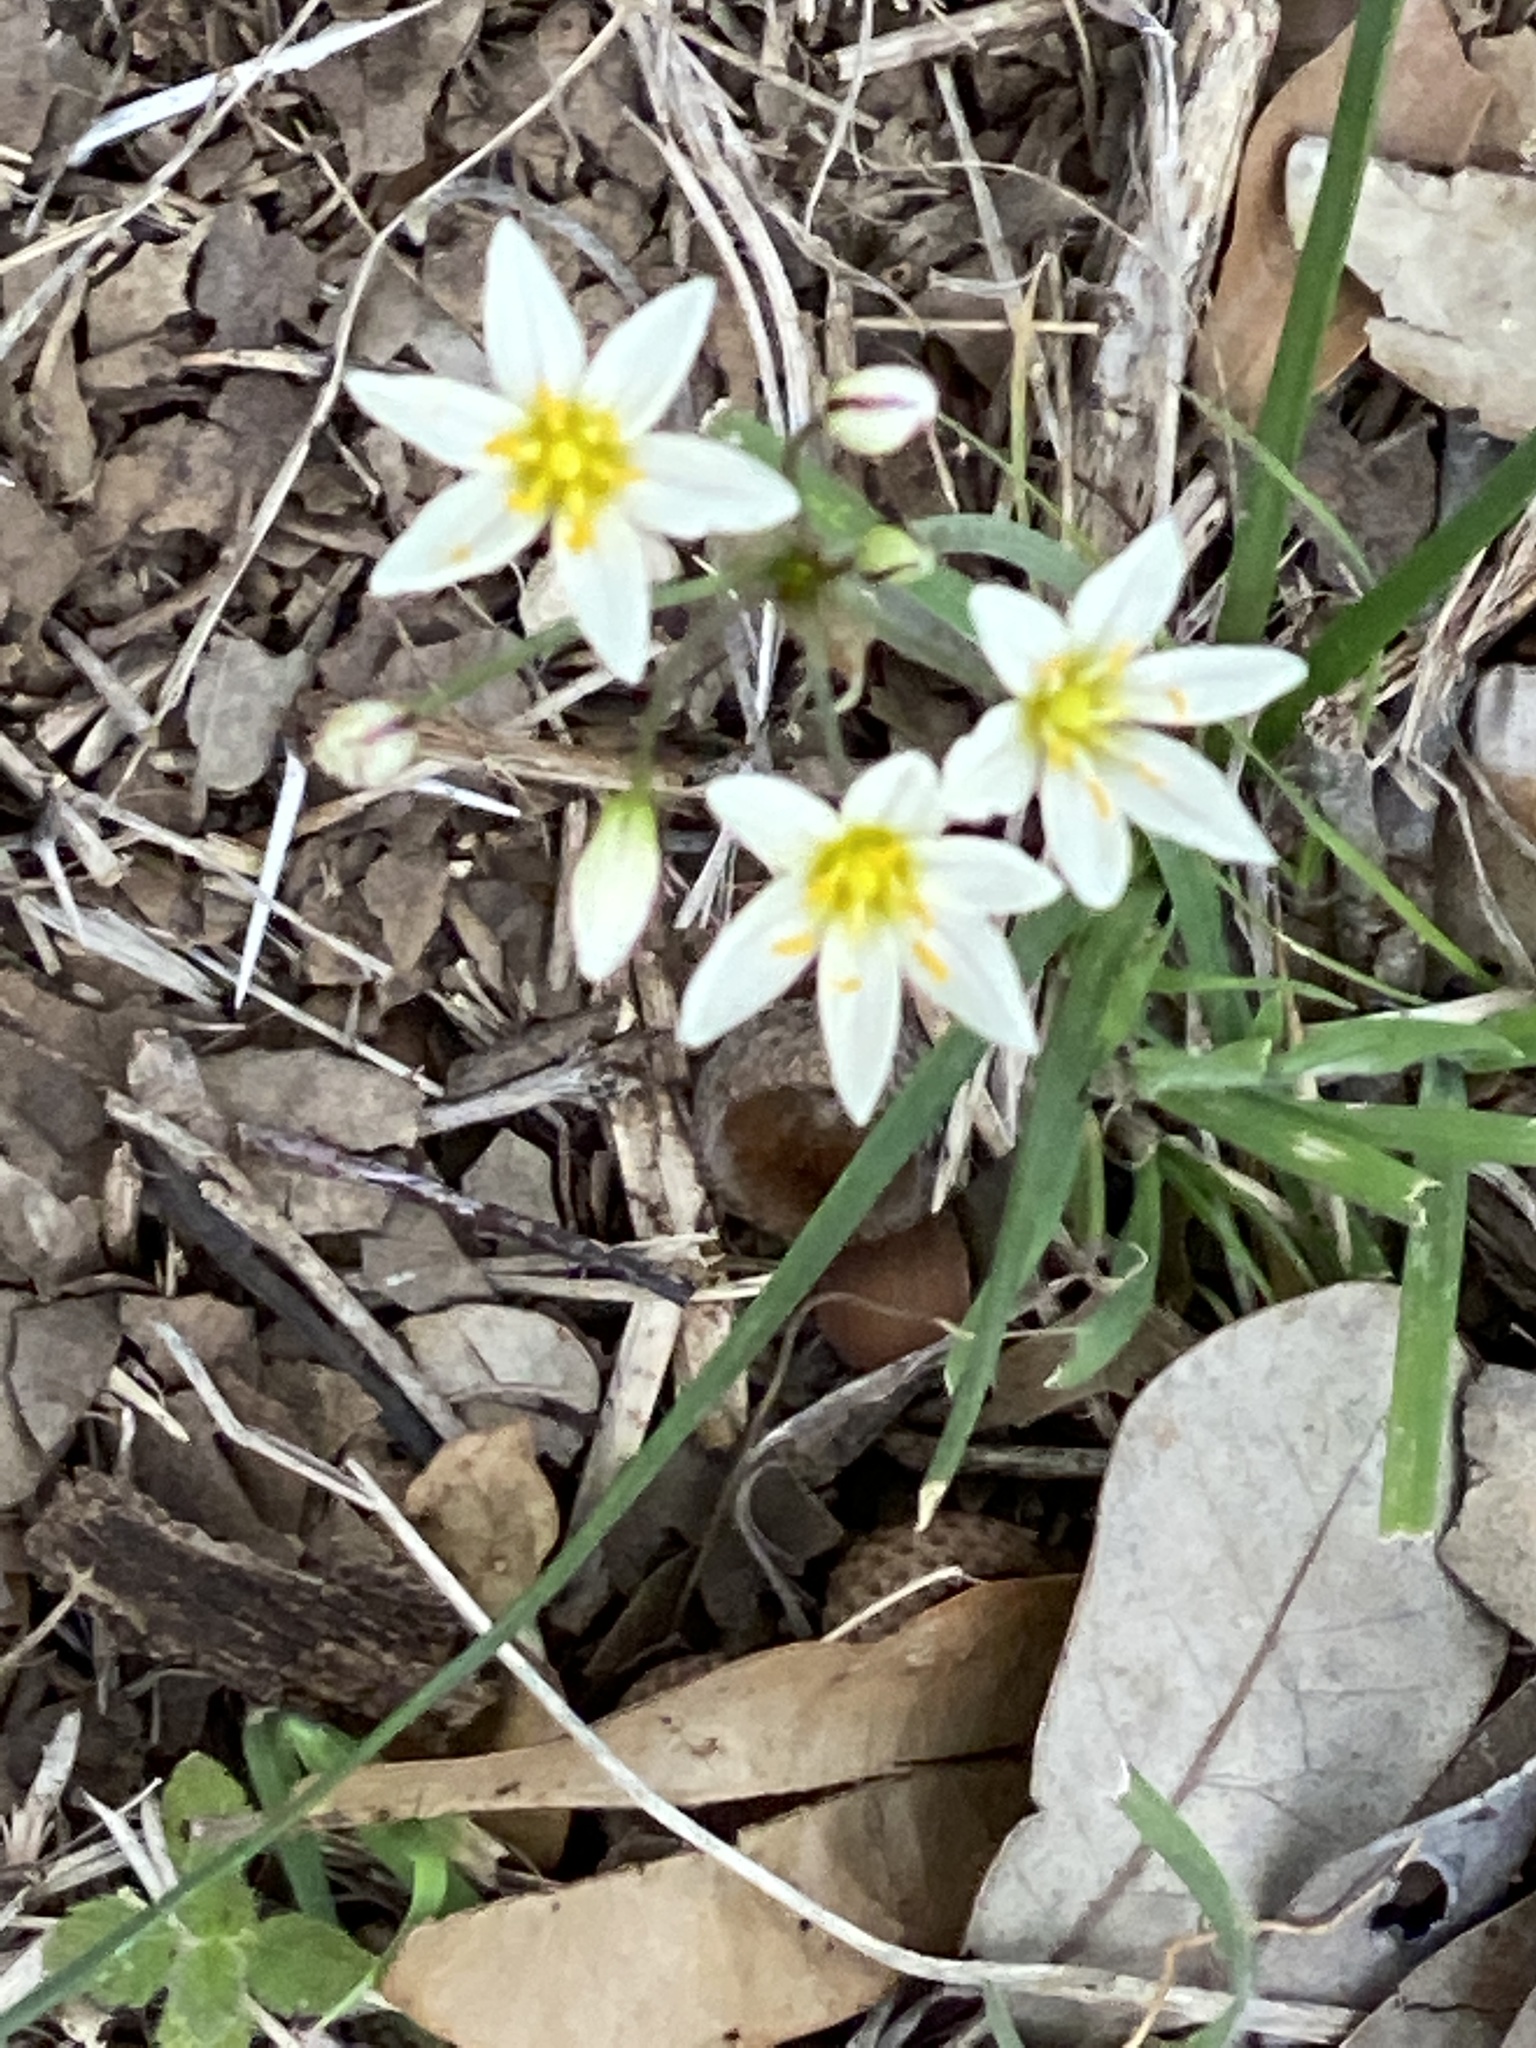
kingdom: Plantae
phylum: Tracheophyta
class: Liliopsida
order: Asparagales
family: Amaryllidaceae
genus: Nothoscordum
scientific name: Nothoscordum bivalve
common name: Crow-poison
